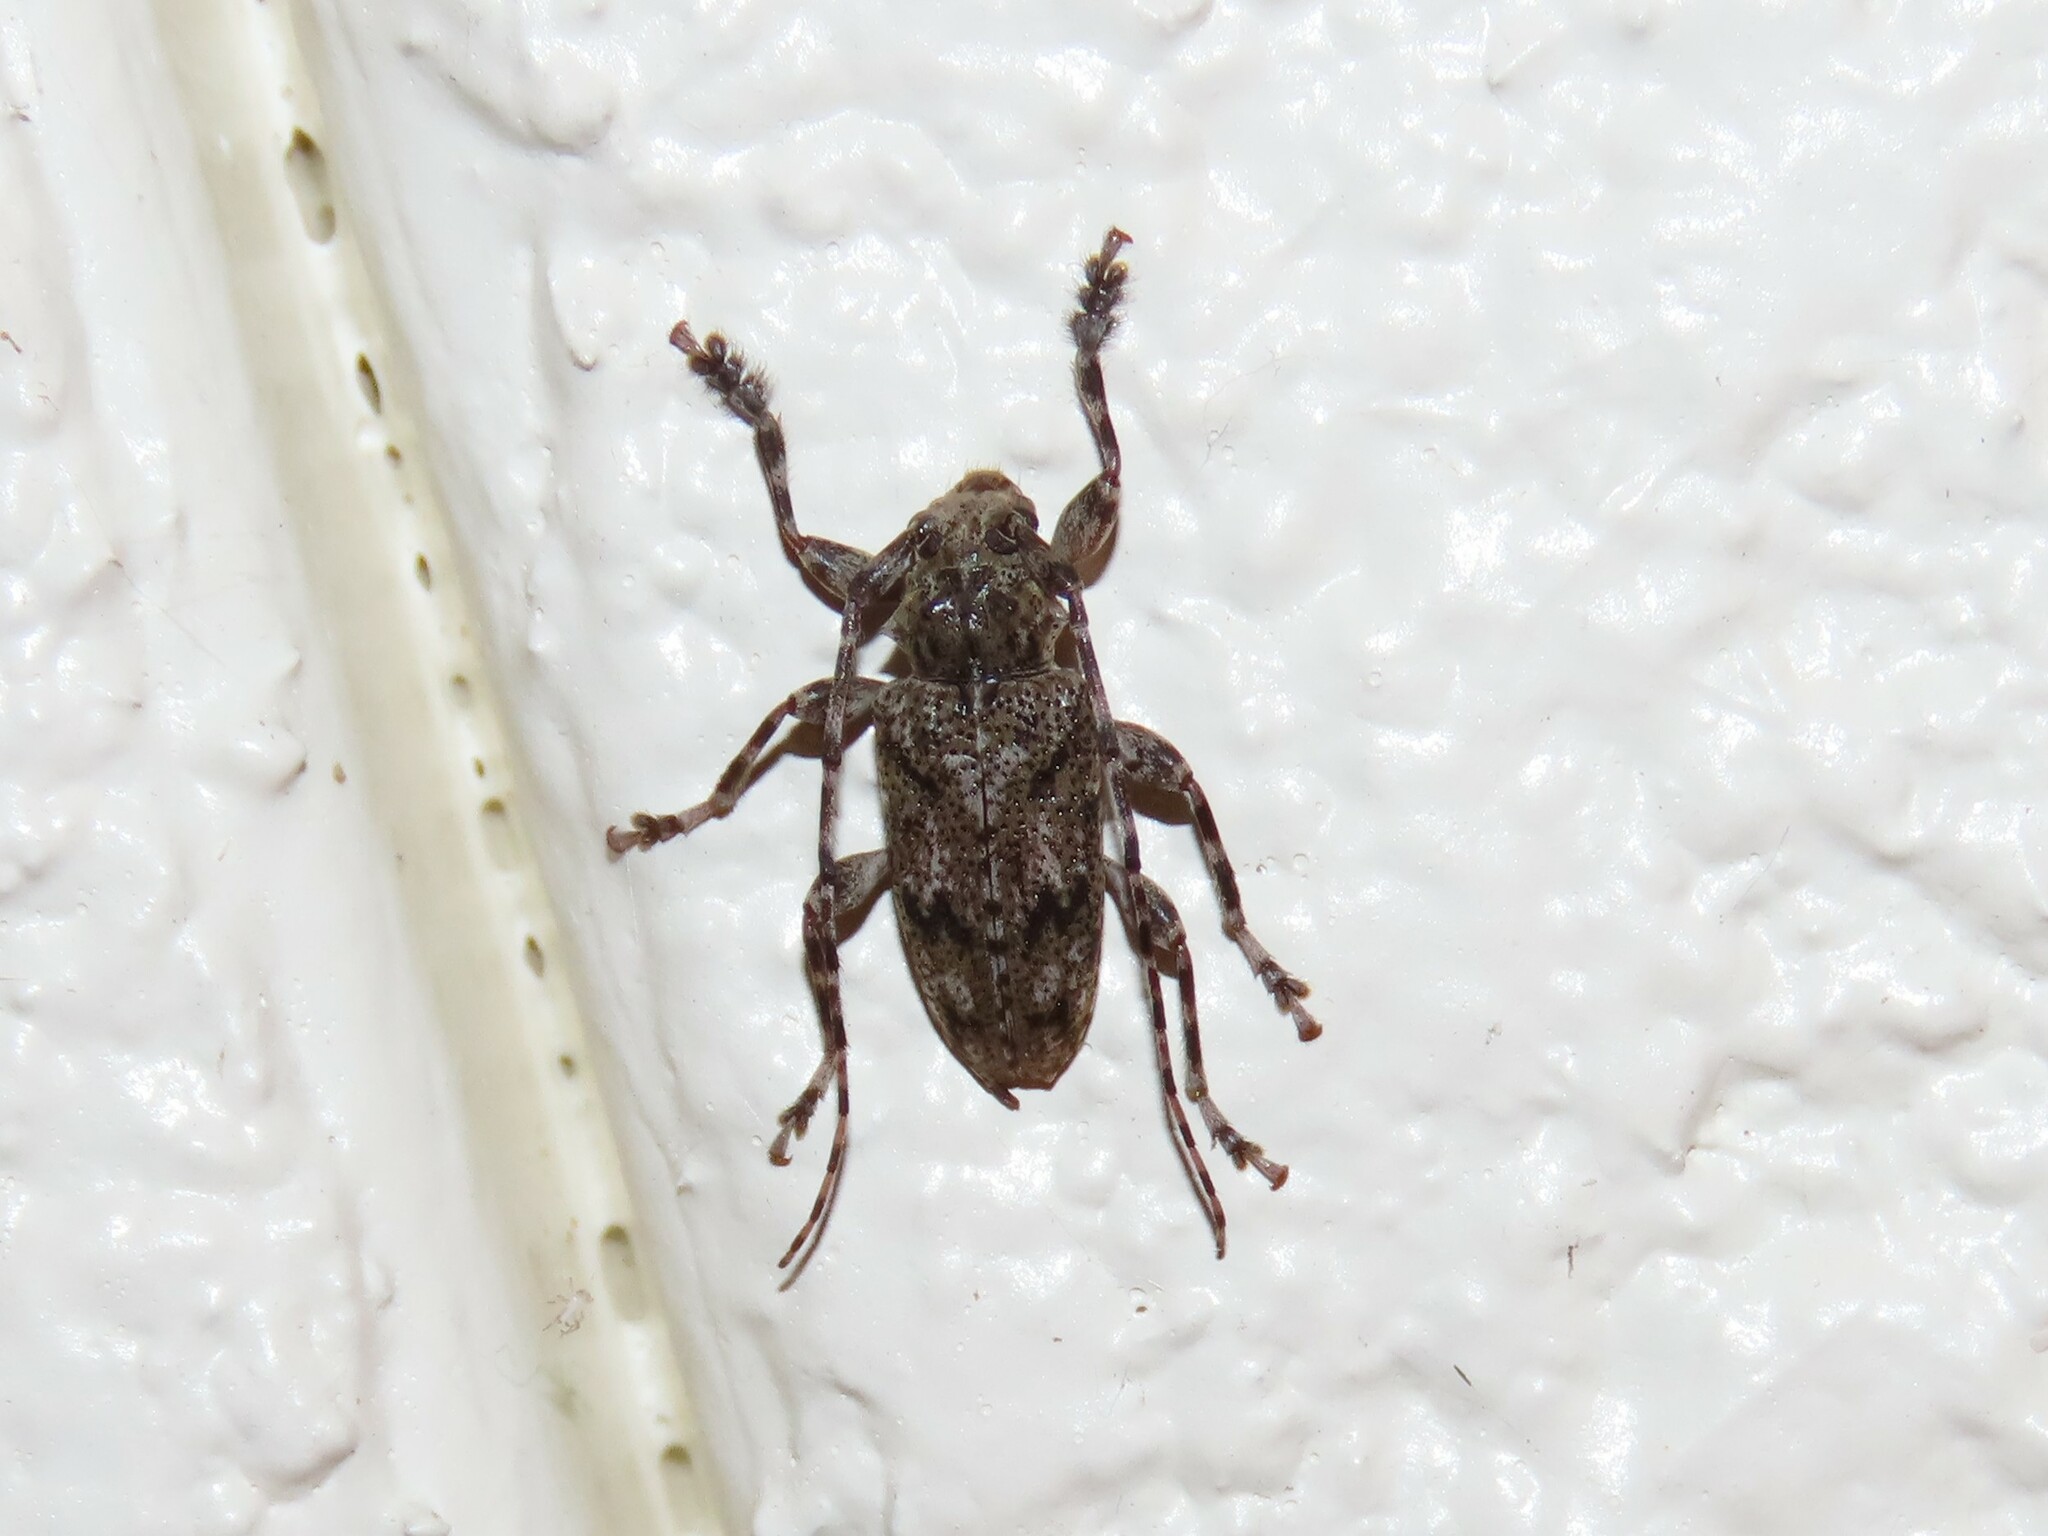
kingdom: Animalia
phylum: Arthropoda
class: Insecta
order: Coleoptera
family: Cerambycidae
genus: Aegomorphus
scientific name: Aegomorphus modestus
